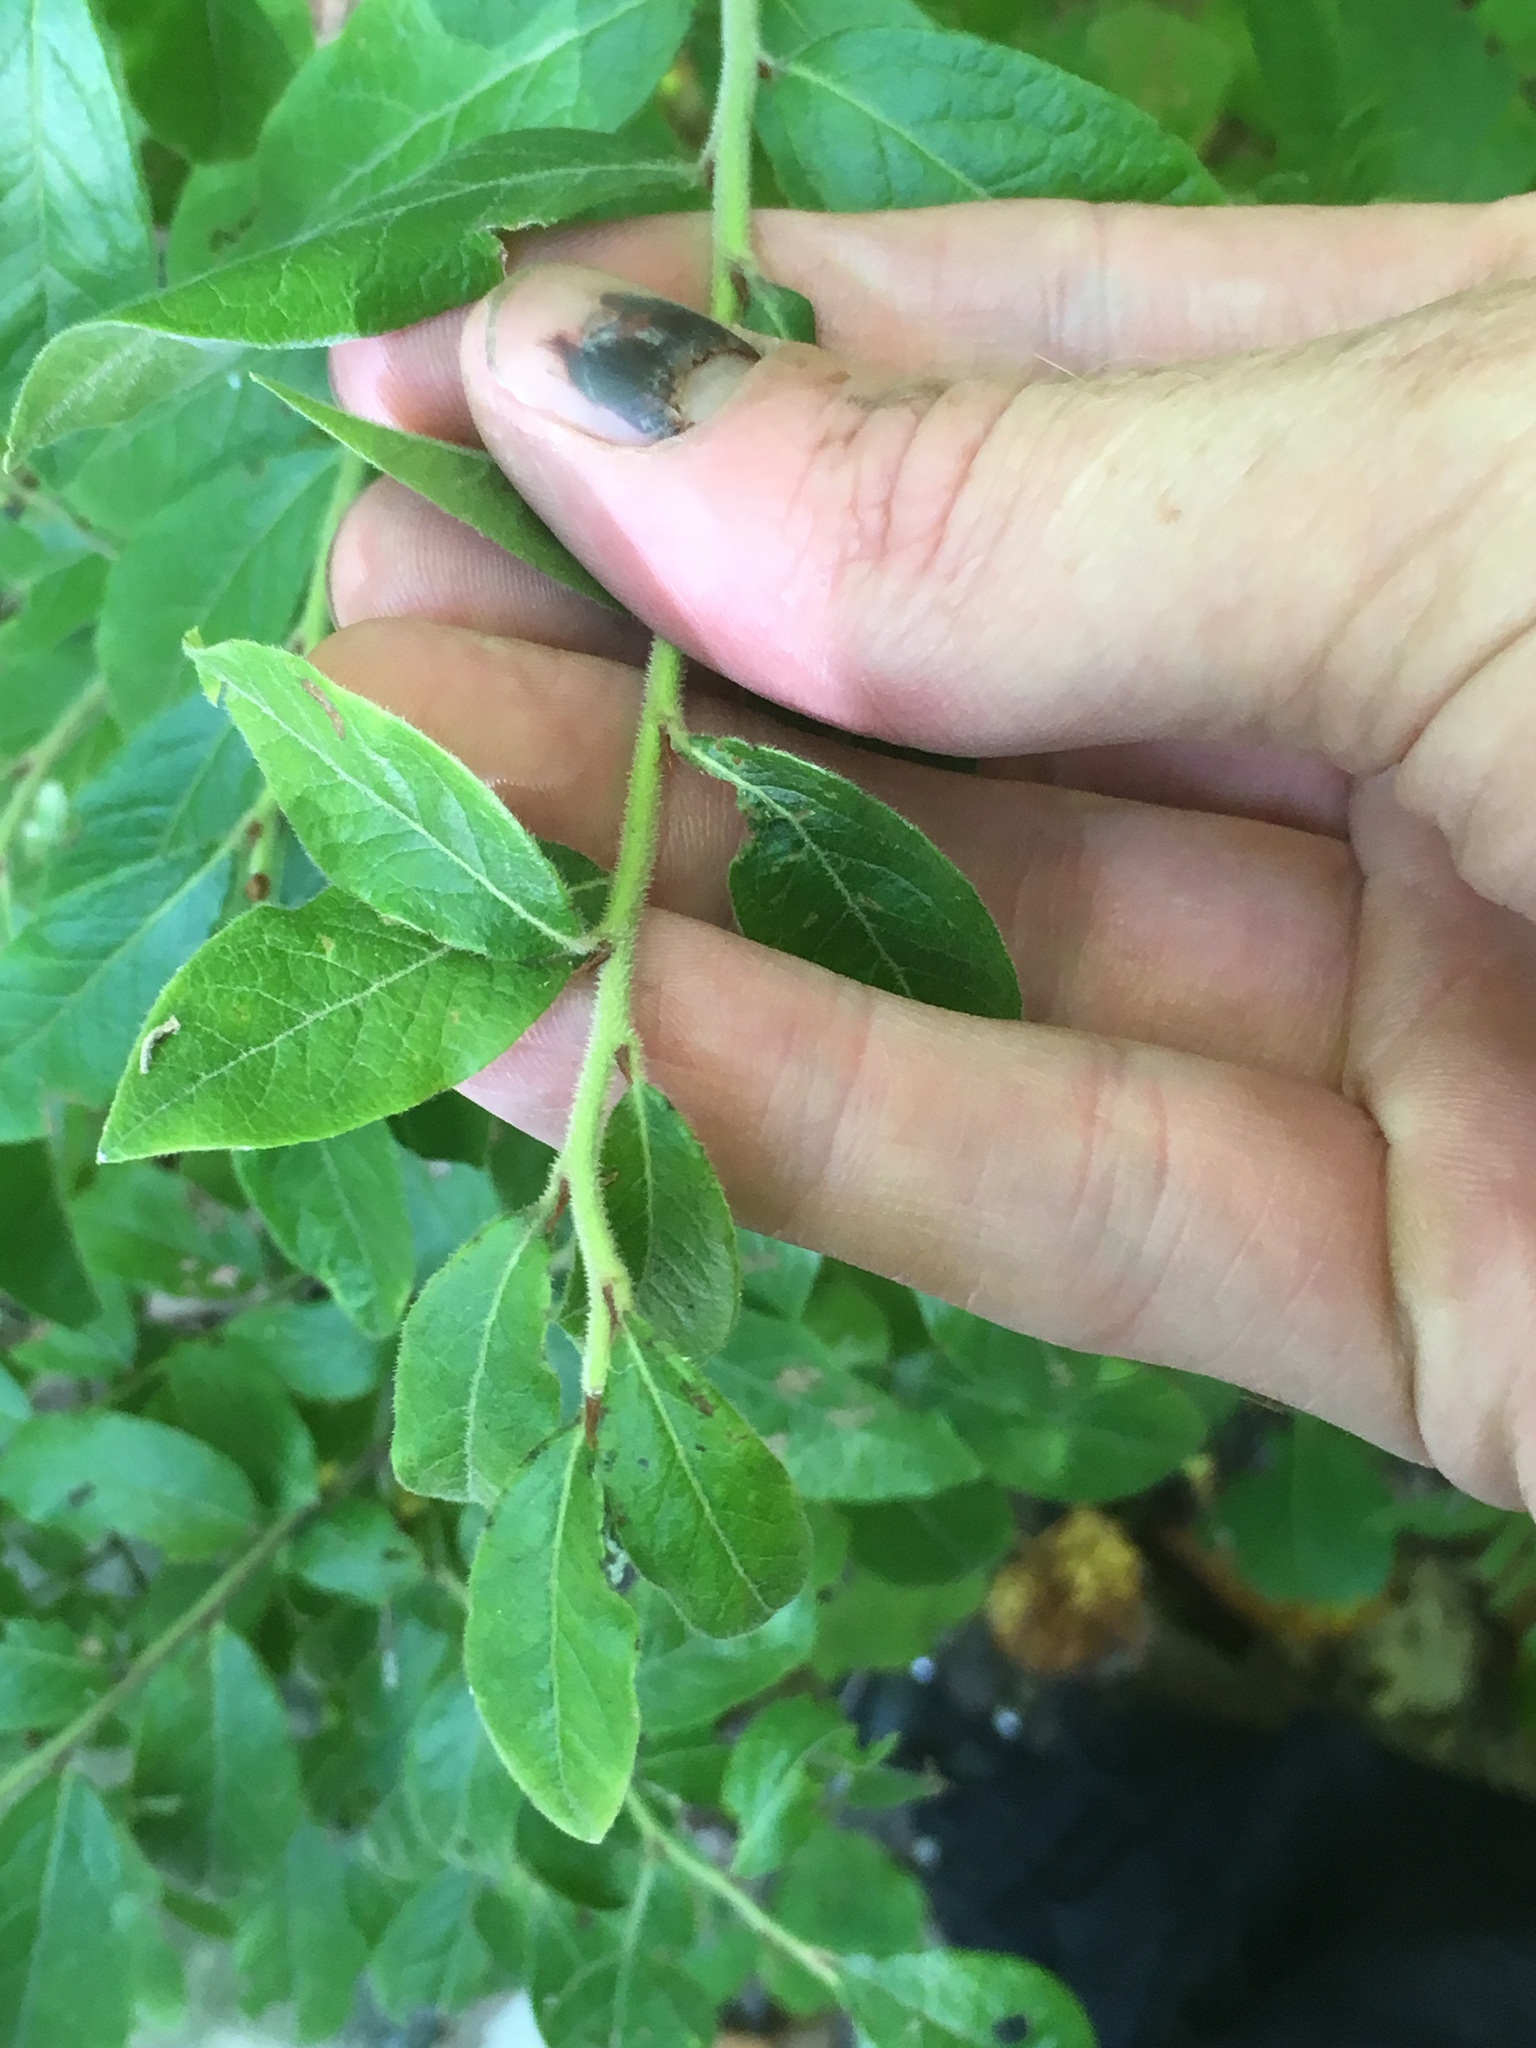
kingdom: Plantae
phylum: Tracheophyta
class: Magnoliopsida
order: Ericales
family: Ericaceae
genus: Vaccinium
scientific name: Vaccinium myrtilloides
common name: Canada blueberry
